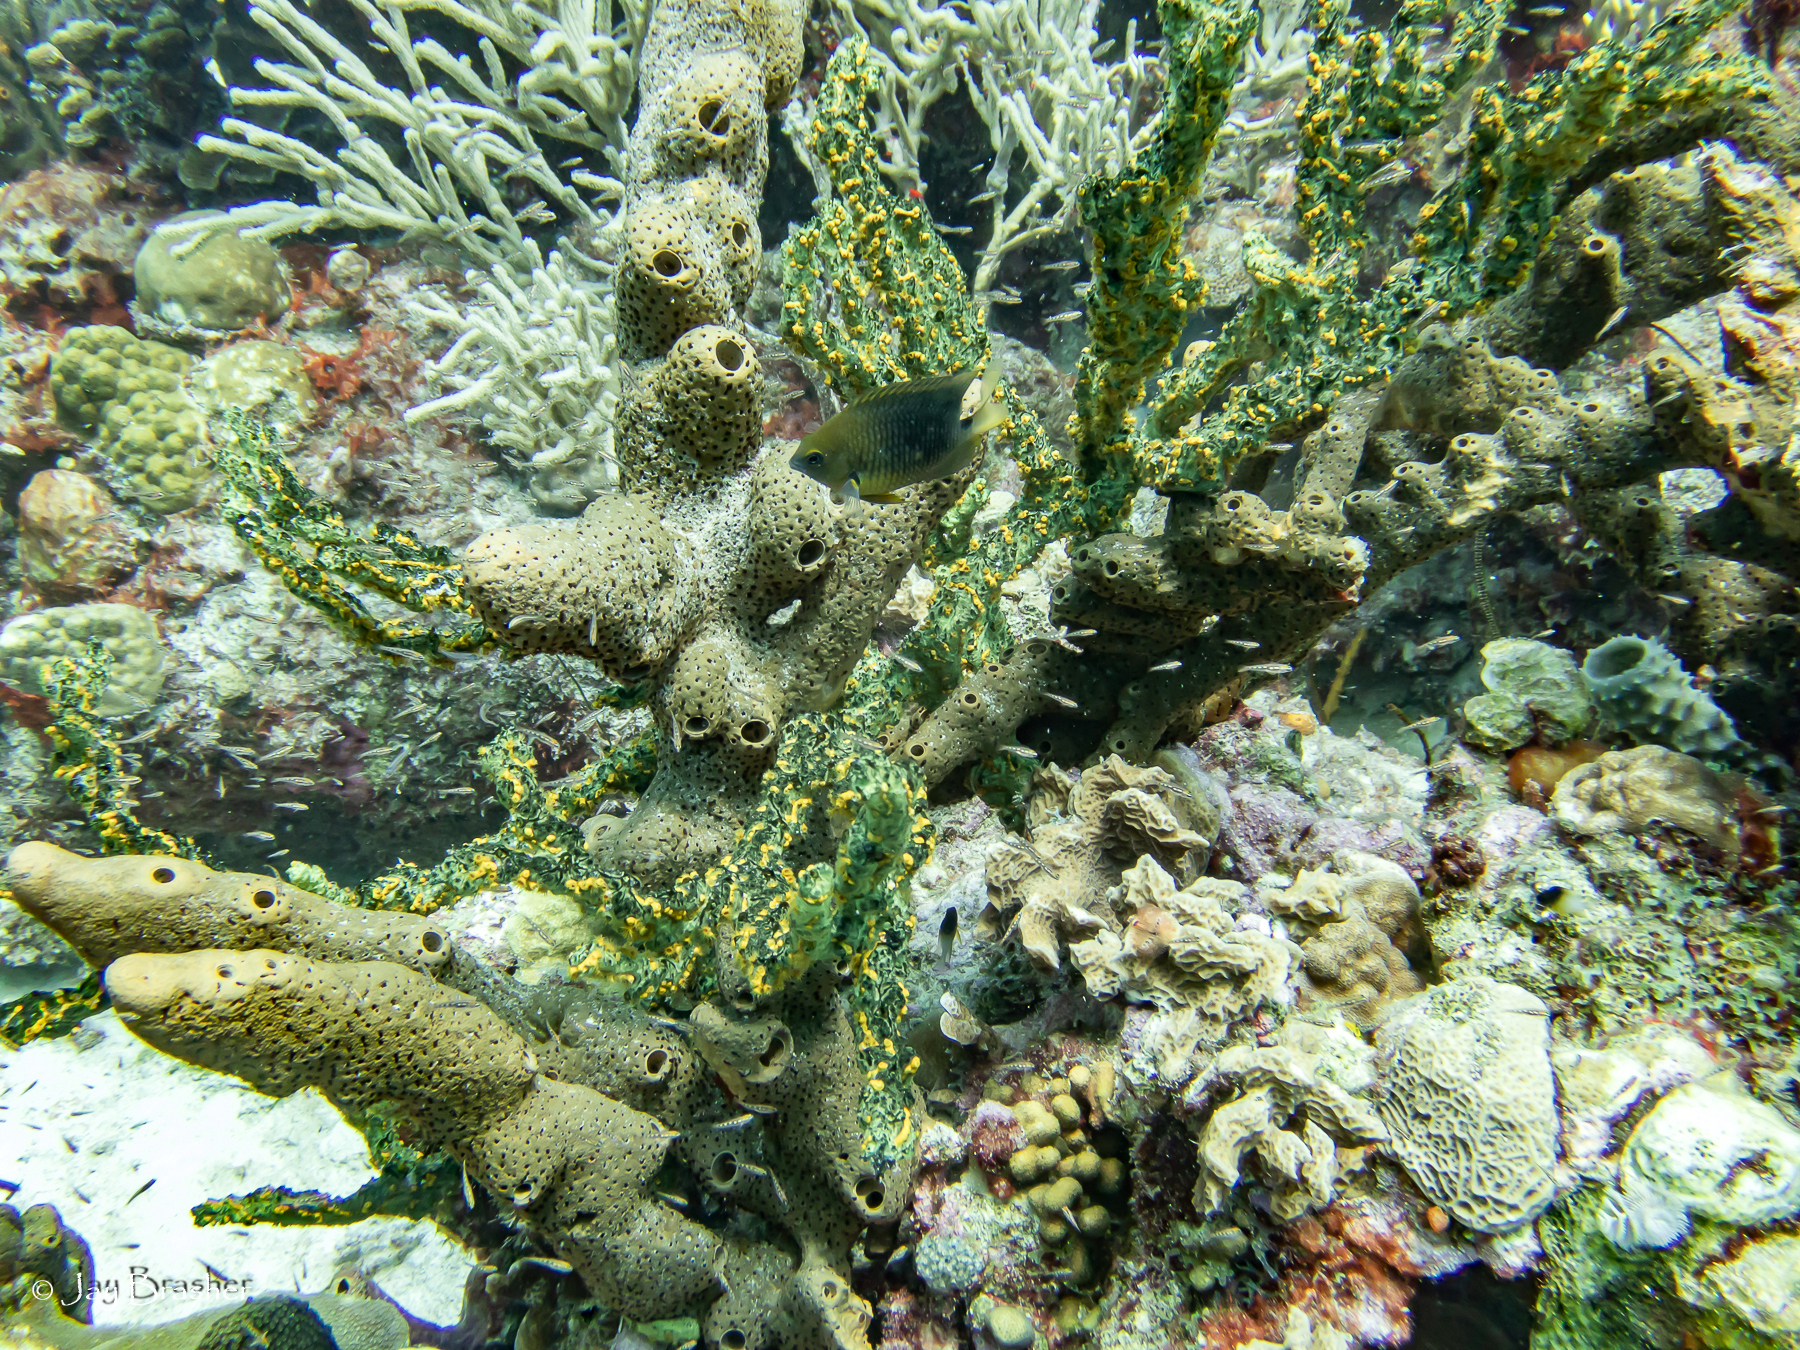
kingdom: Animalia
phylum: Porifera
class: Demospongiae
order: Agelasida
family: Agelasidae
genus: Agelas
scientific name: Agelas conifera
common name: Brown tube sponge
